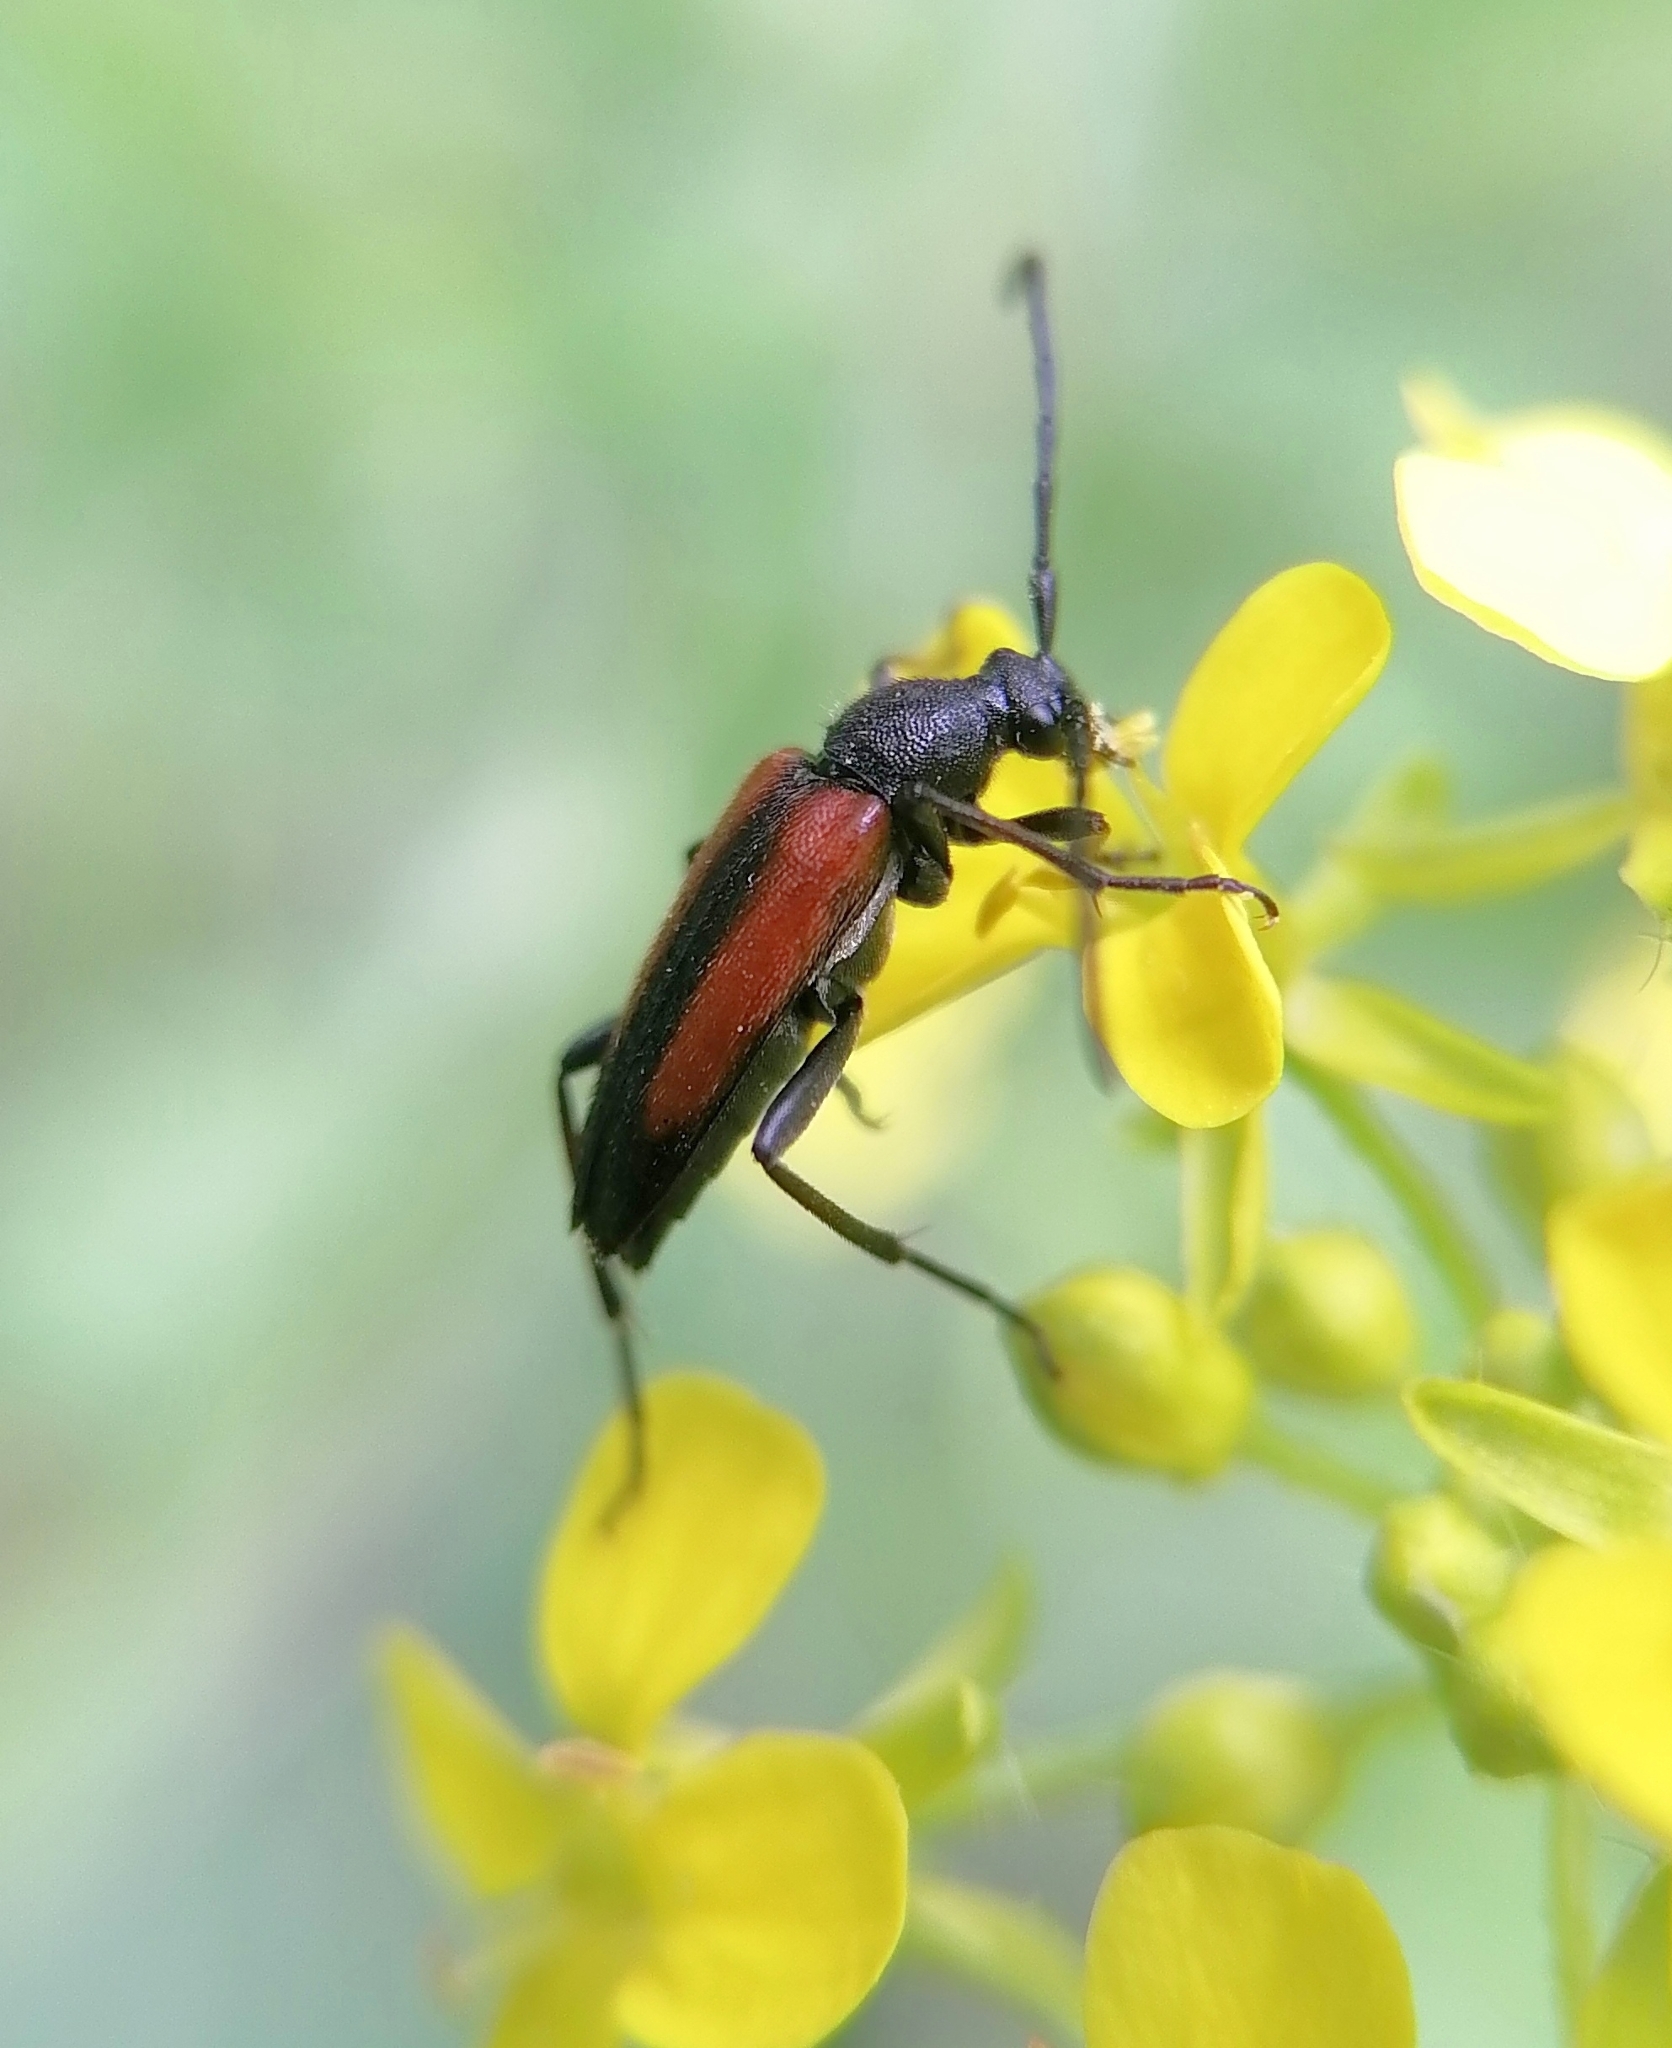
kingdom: Animalia
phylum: Arthropoda
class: Insecta
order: Coleoptera
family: Cerambycidae
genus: Stenurella
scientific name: Stenurella melanura
